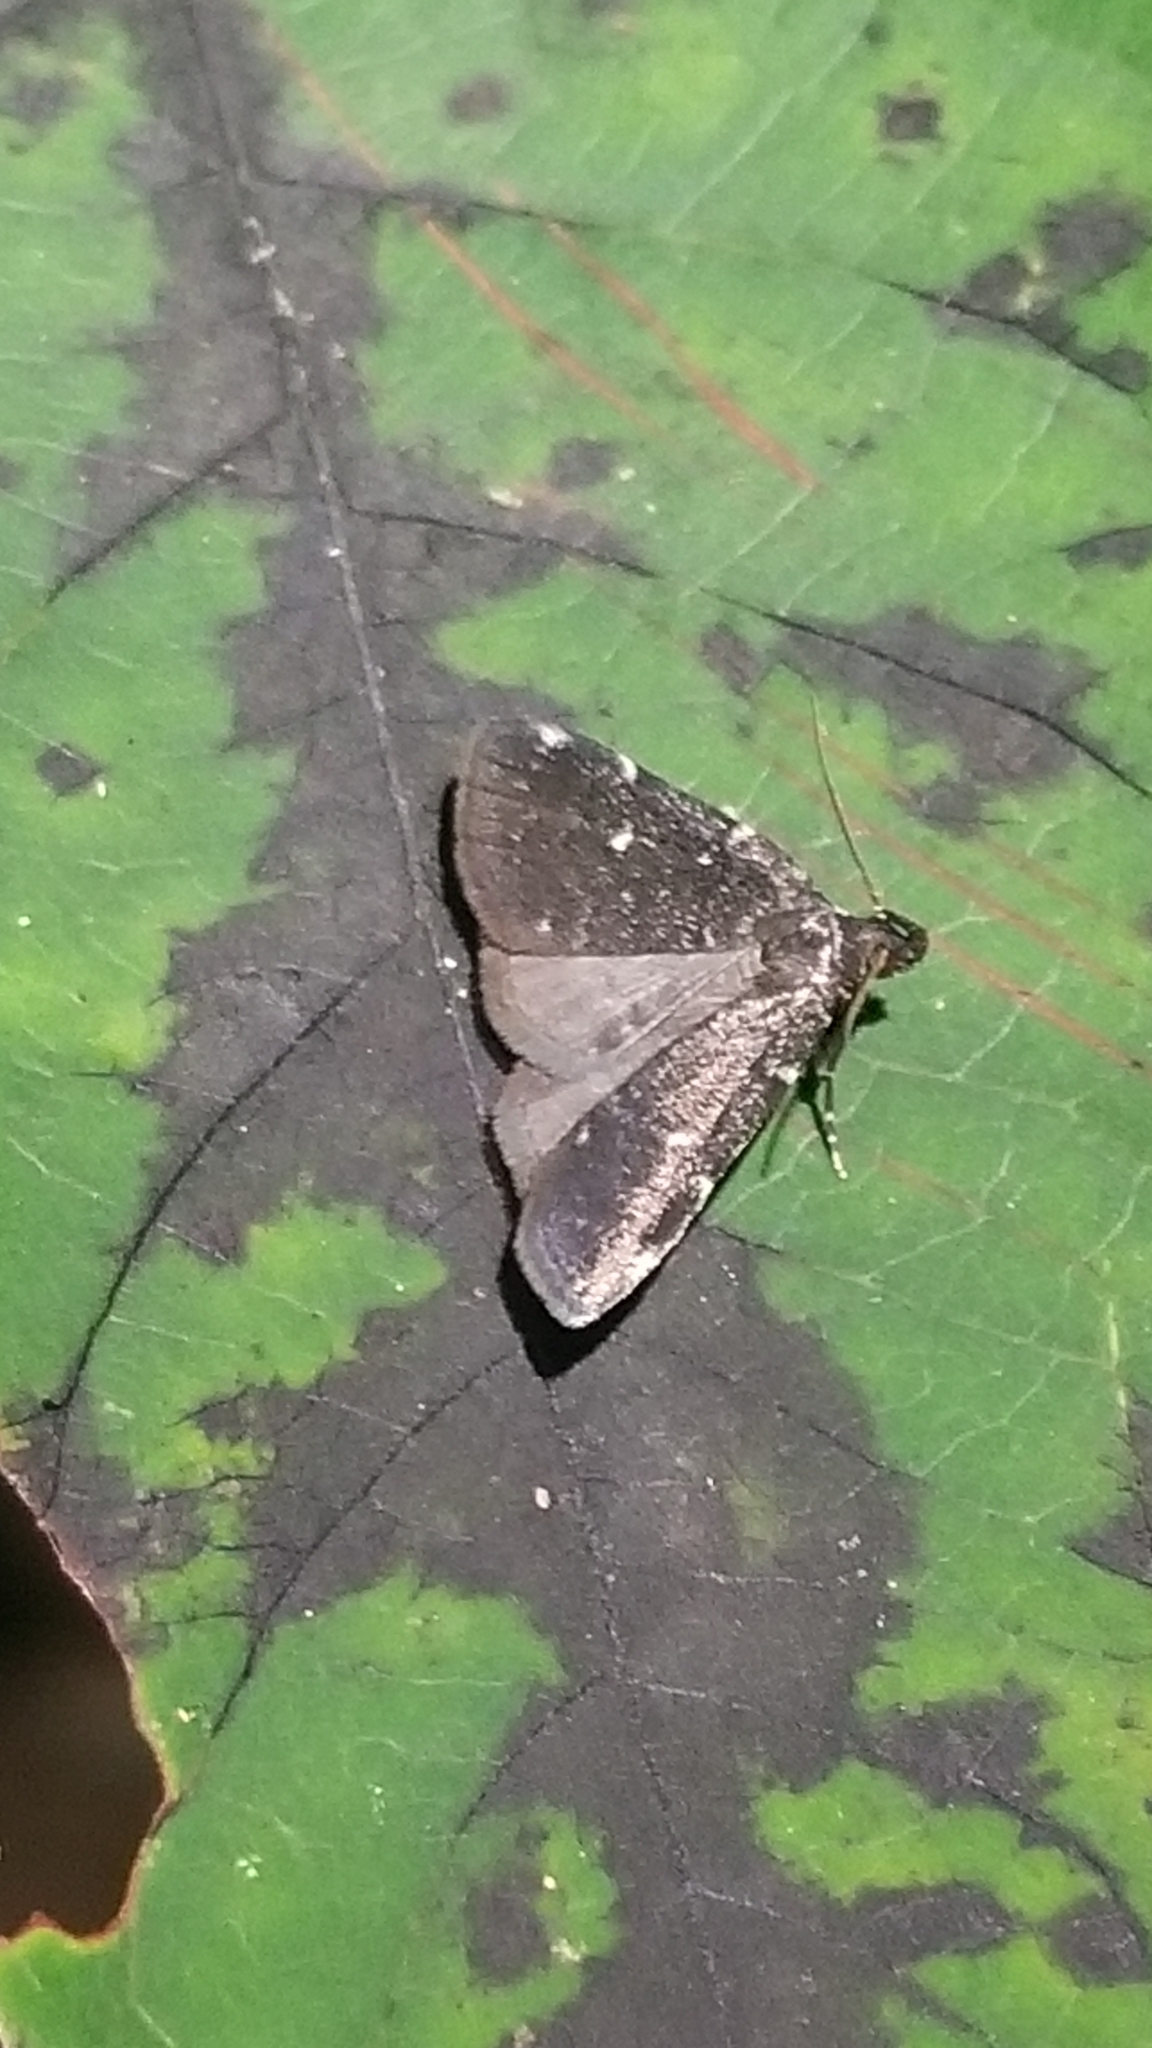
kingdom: Animalia
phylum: Arthropoda
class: Insecta
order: Lepidoptera
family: Erebidae
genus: Idia
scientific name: Idia julia
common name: Julia's idia moth
